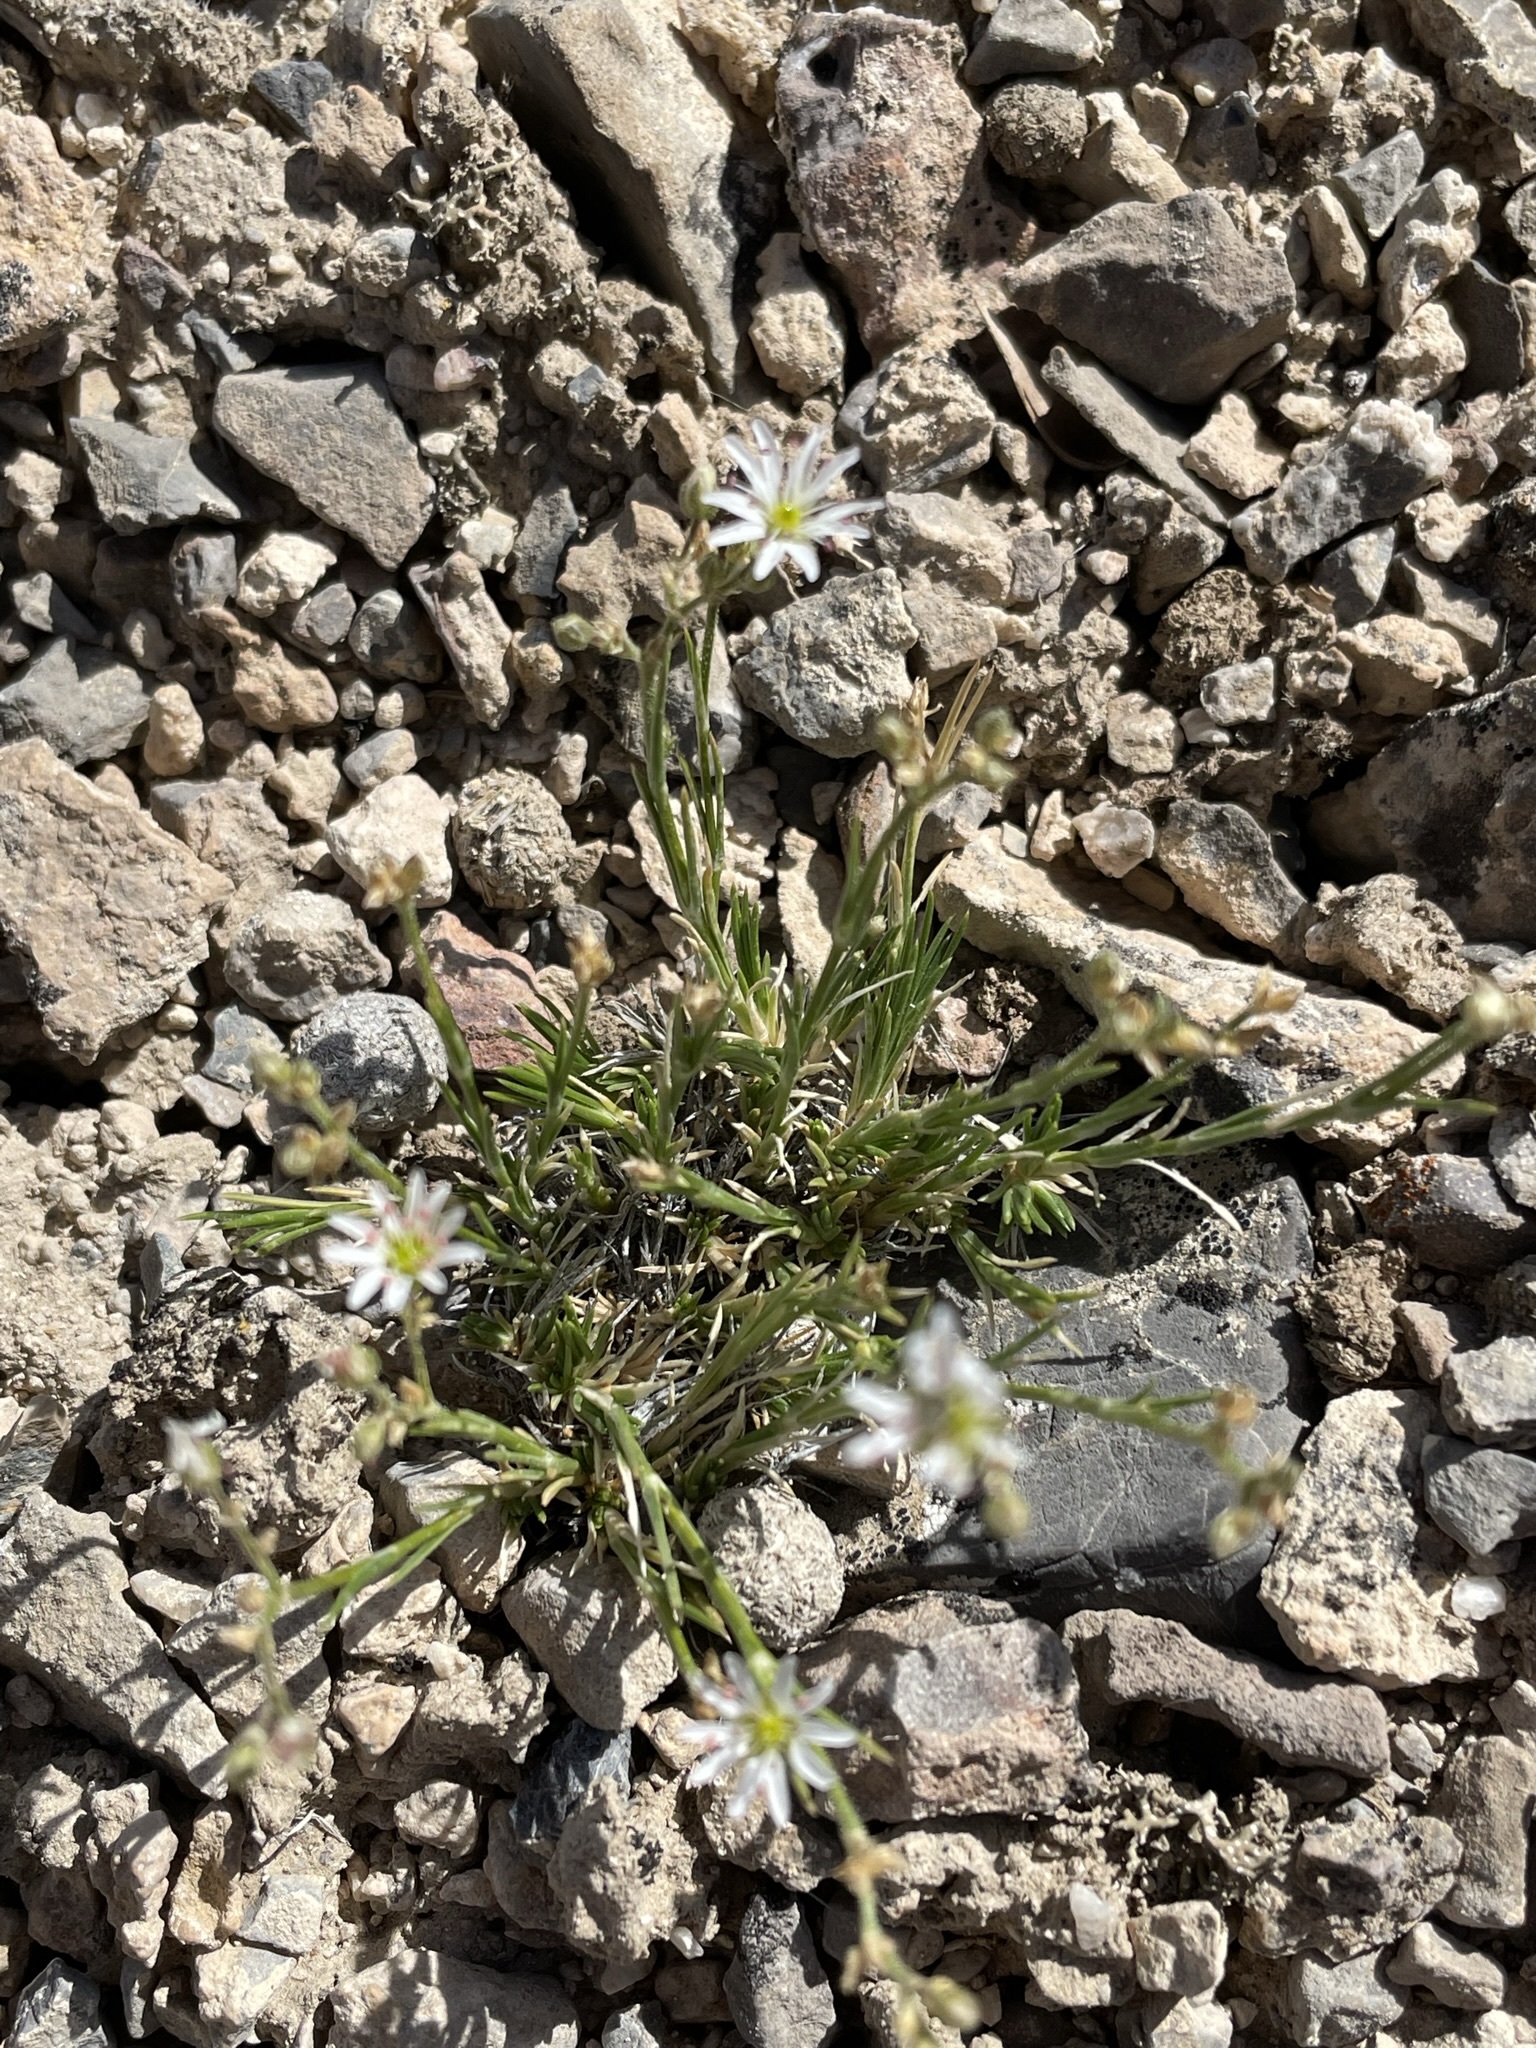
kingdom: Plantae
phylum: Tracheophyta
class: Magnoliopsida
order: Caryophyllales
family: Caryophyllaceae
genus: Eremogone
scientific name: Eremogone kingii
